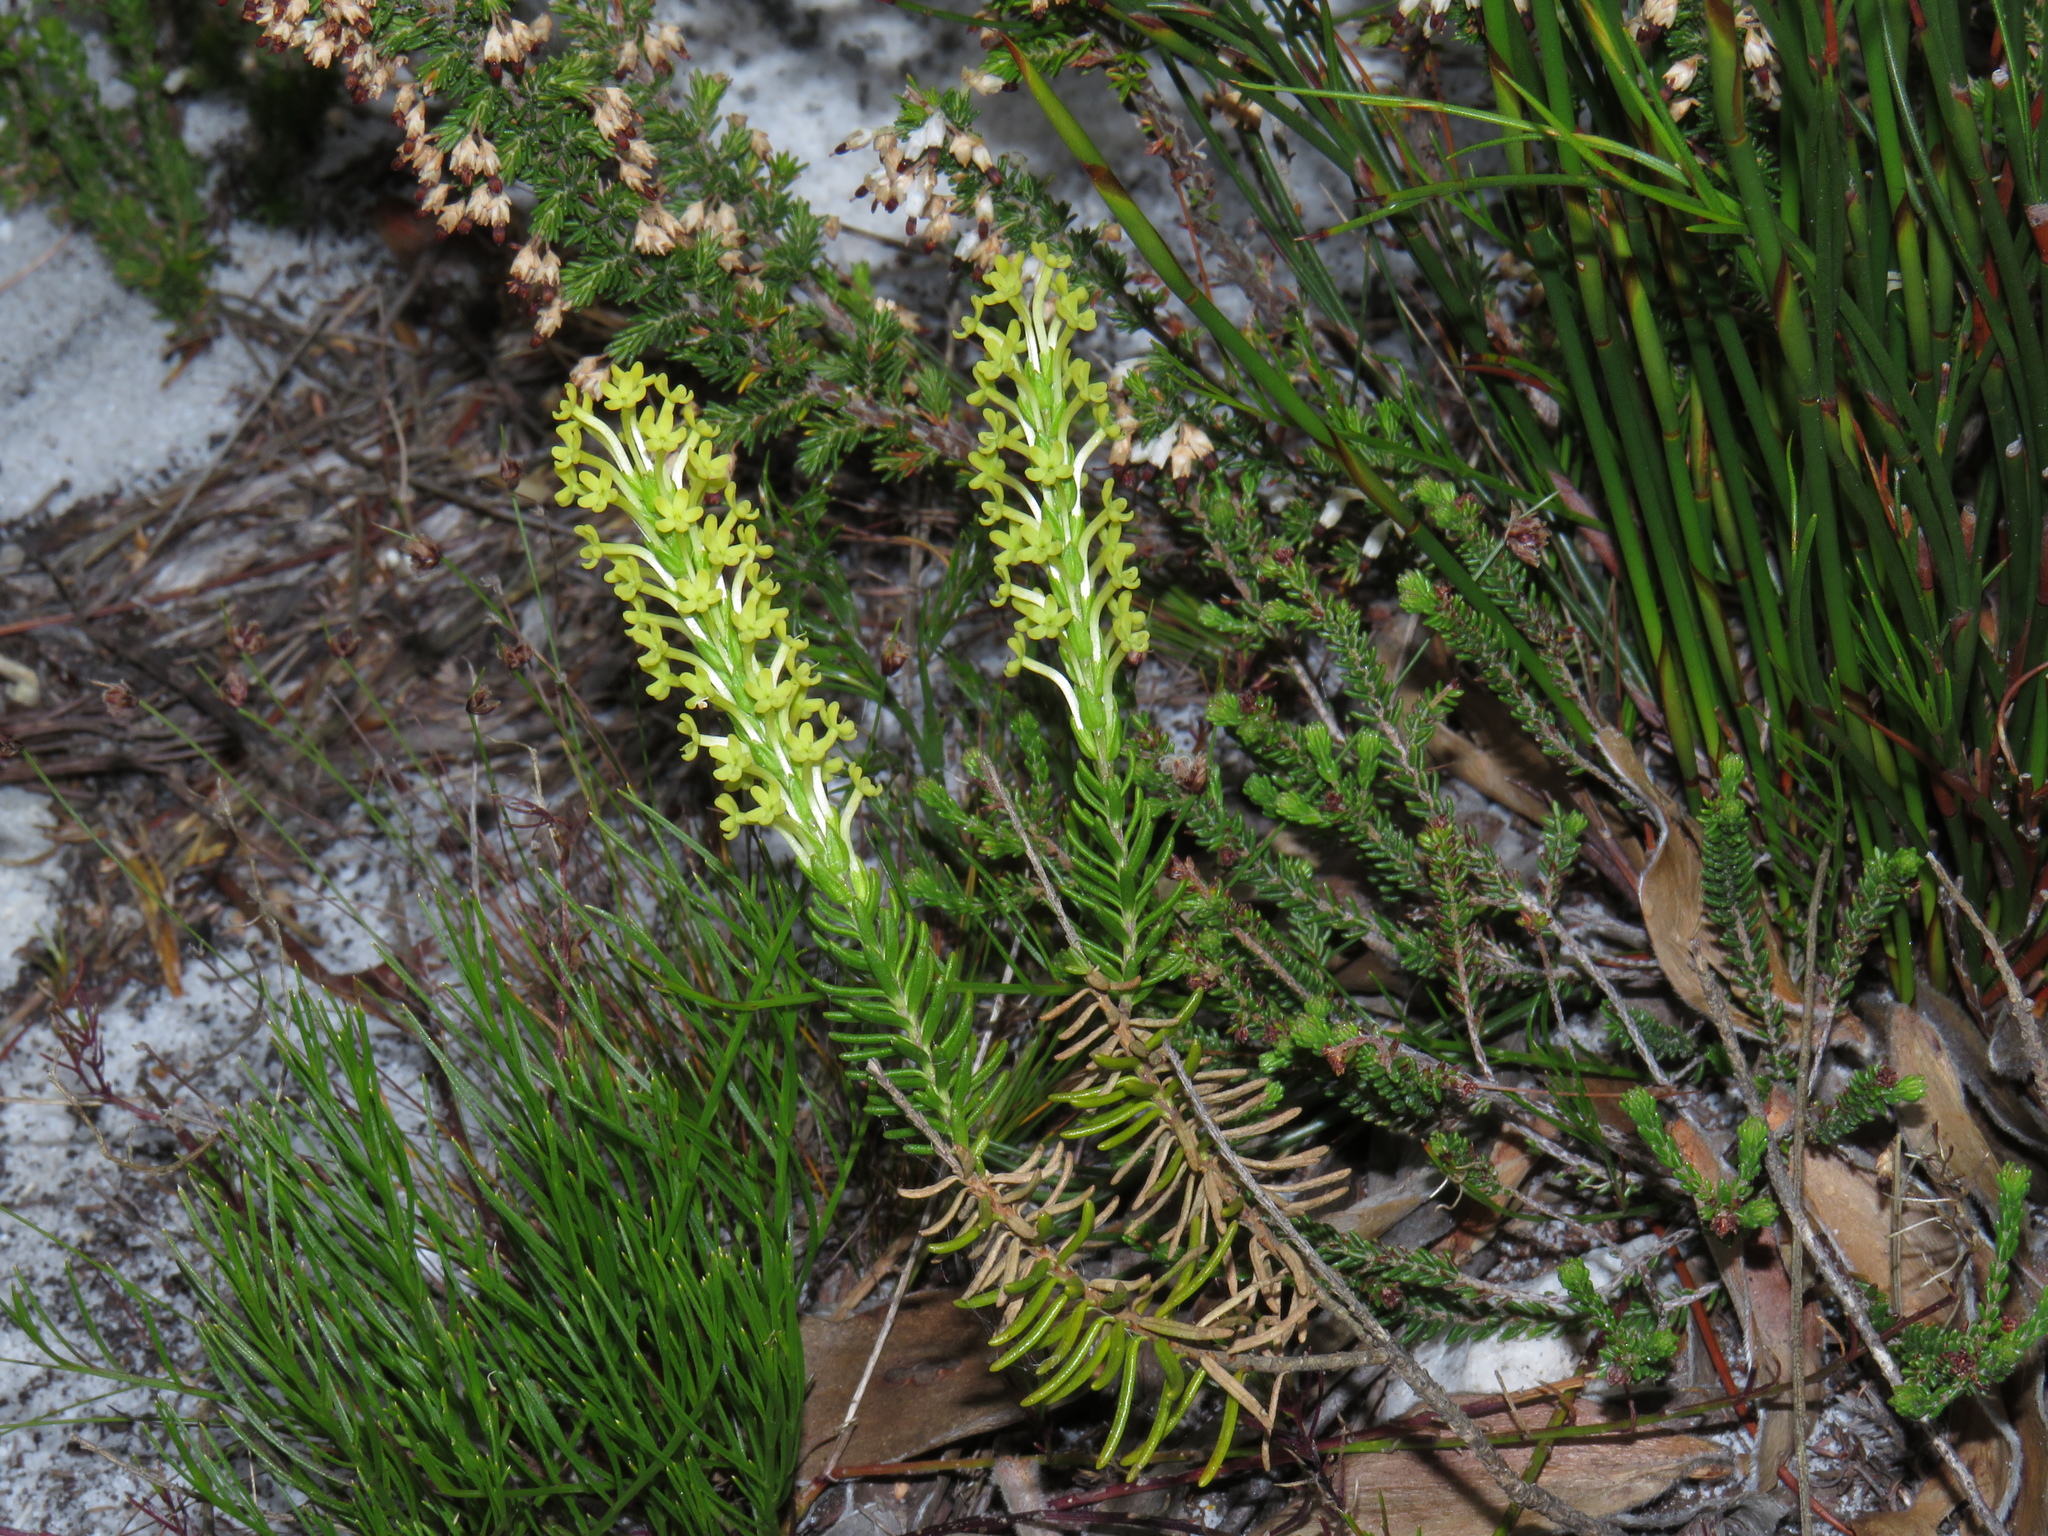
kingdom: Plantae
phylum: Tracheophyta
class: Magnoliopsida
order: Lamiales
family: Scrophulariaceae
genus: Microdon
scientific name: Microdon dubius
